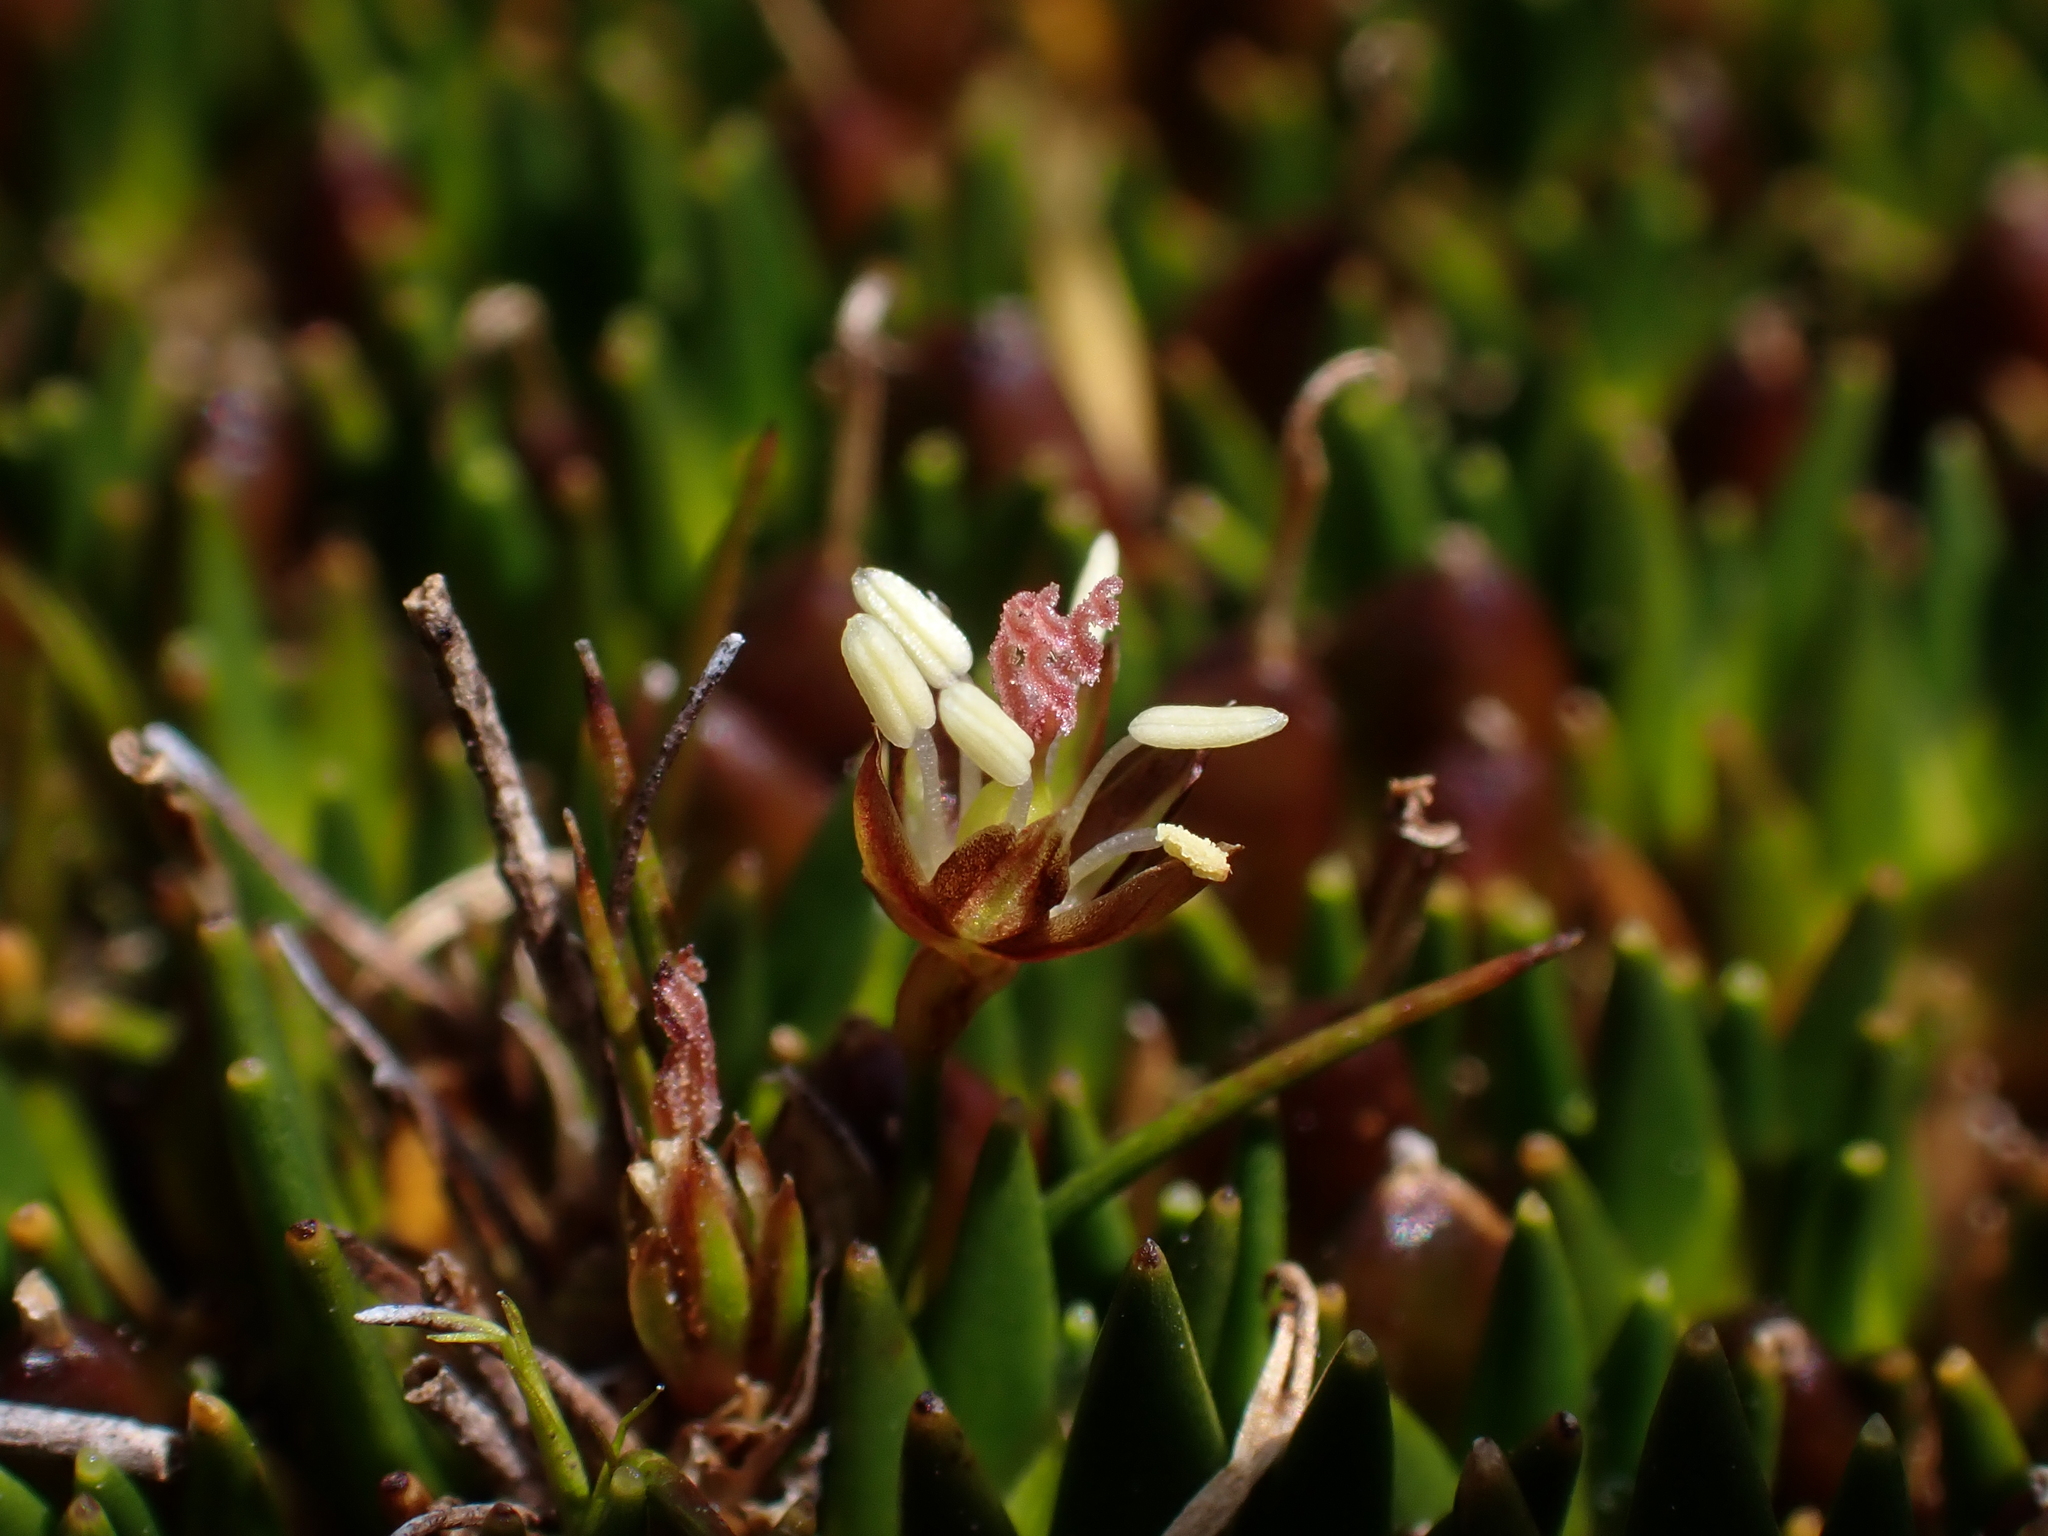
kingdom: Plantae
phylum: Tracheophyta
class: Liliopsida
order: Poales
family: Juncaceae
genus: Distichia
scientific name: Distichia muscoides
